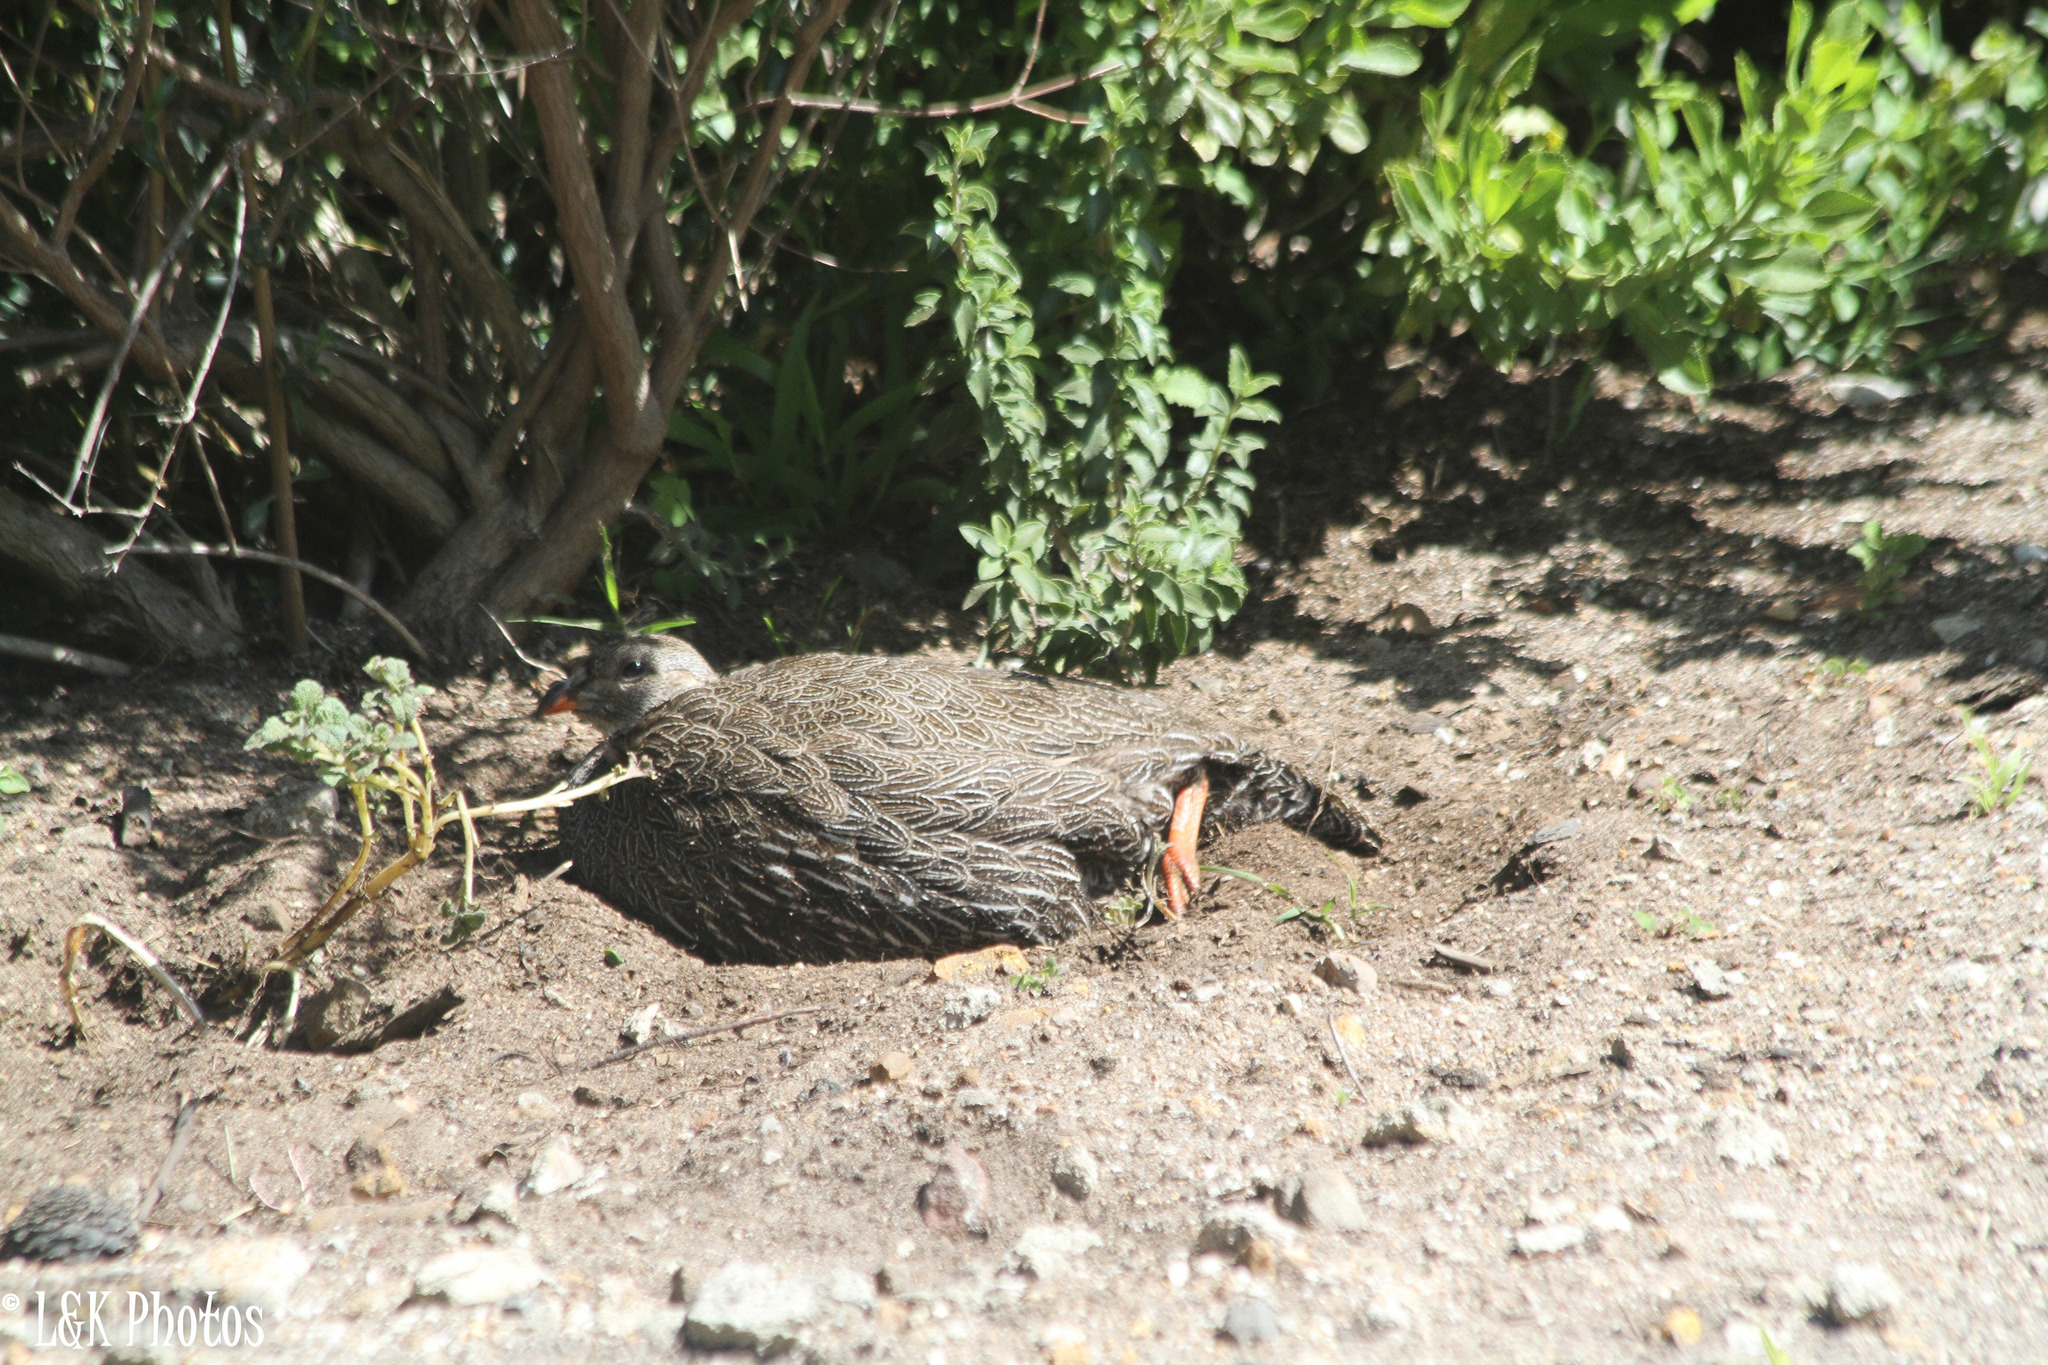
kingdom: Animalia
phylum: Chordata
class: Aves
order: Galliformes
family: Phasianidae
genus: Pternistis
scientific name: Pternistis capensis
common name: Cape spurfowl
